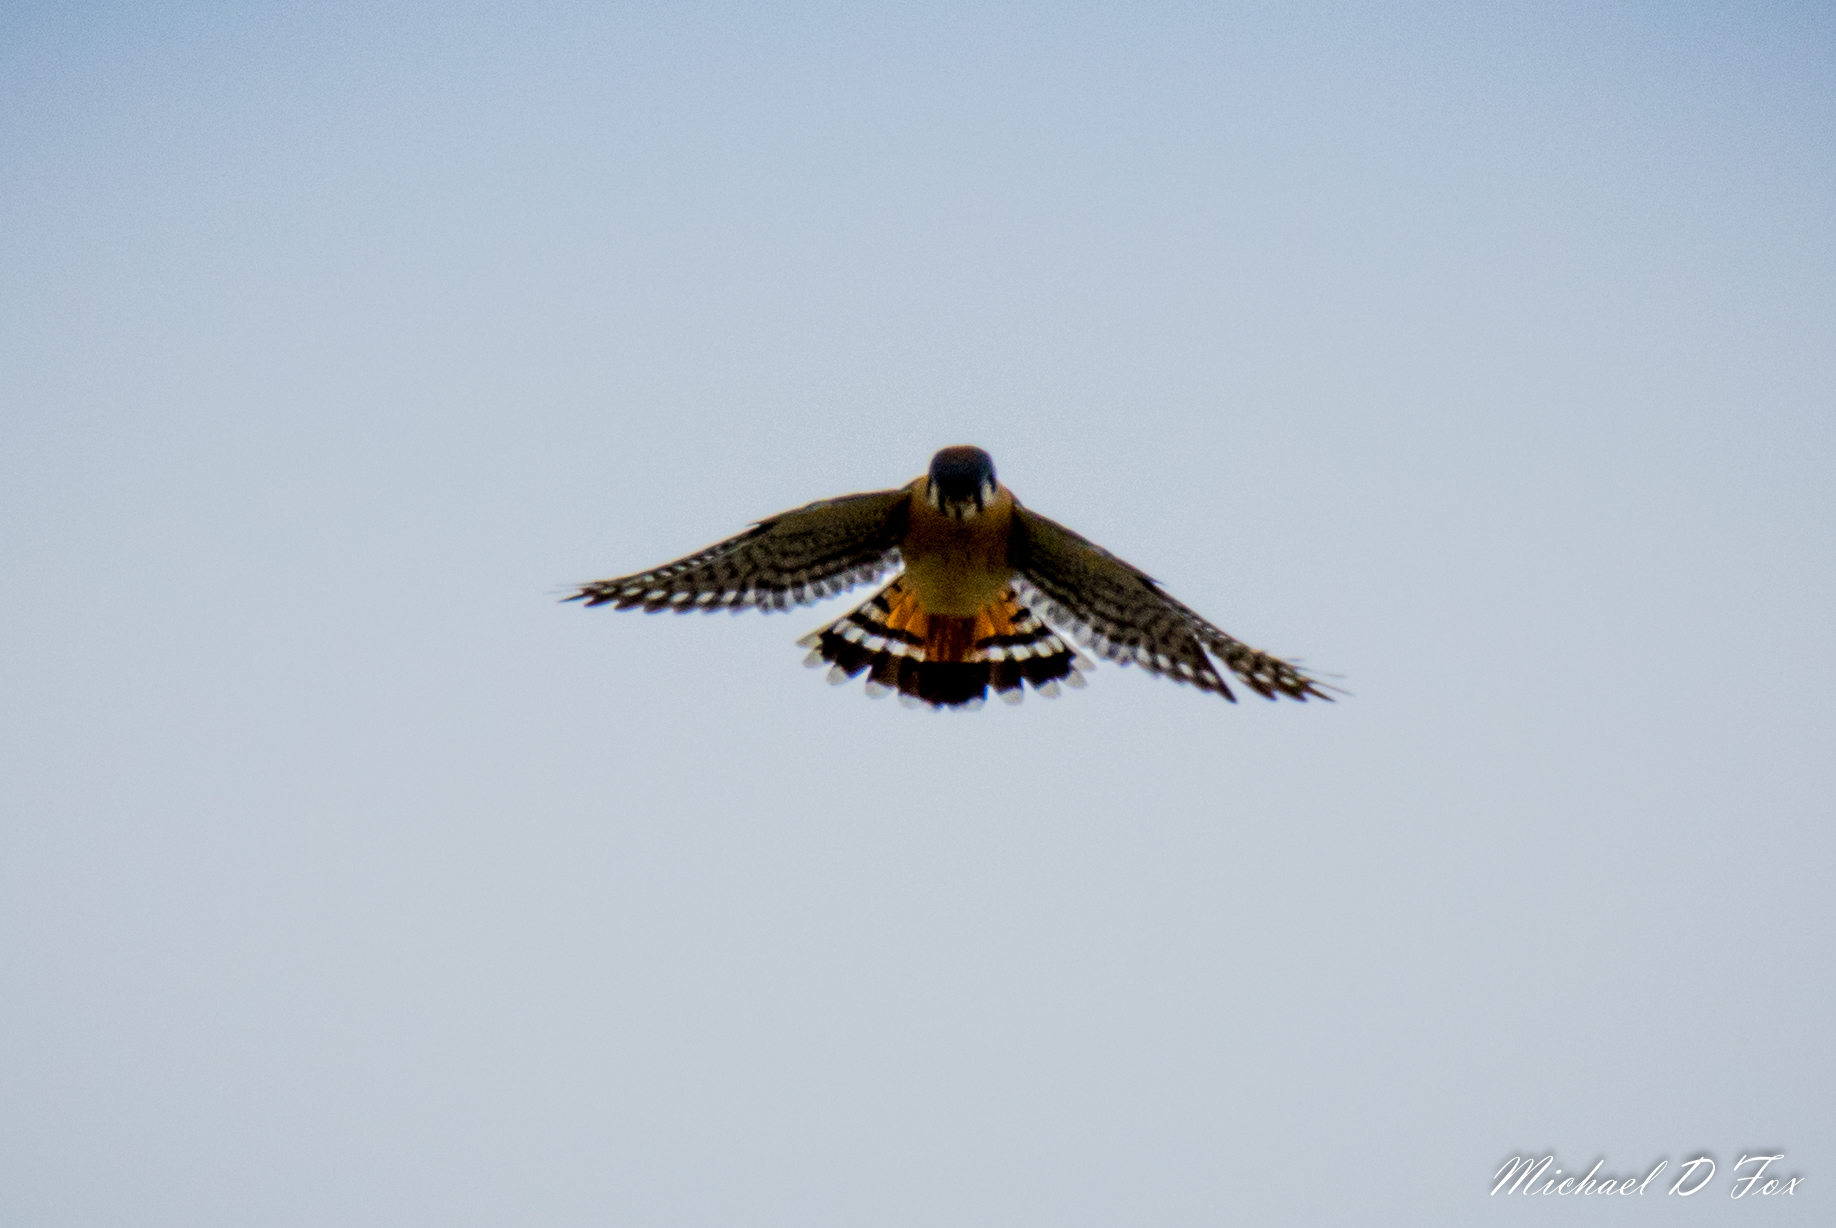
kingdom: Animalia
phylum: Chordata
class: Aves
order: Falconiformes
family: Falconidae
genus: Falco
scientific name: Falco sparverius
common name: American kestrel
